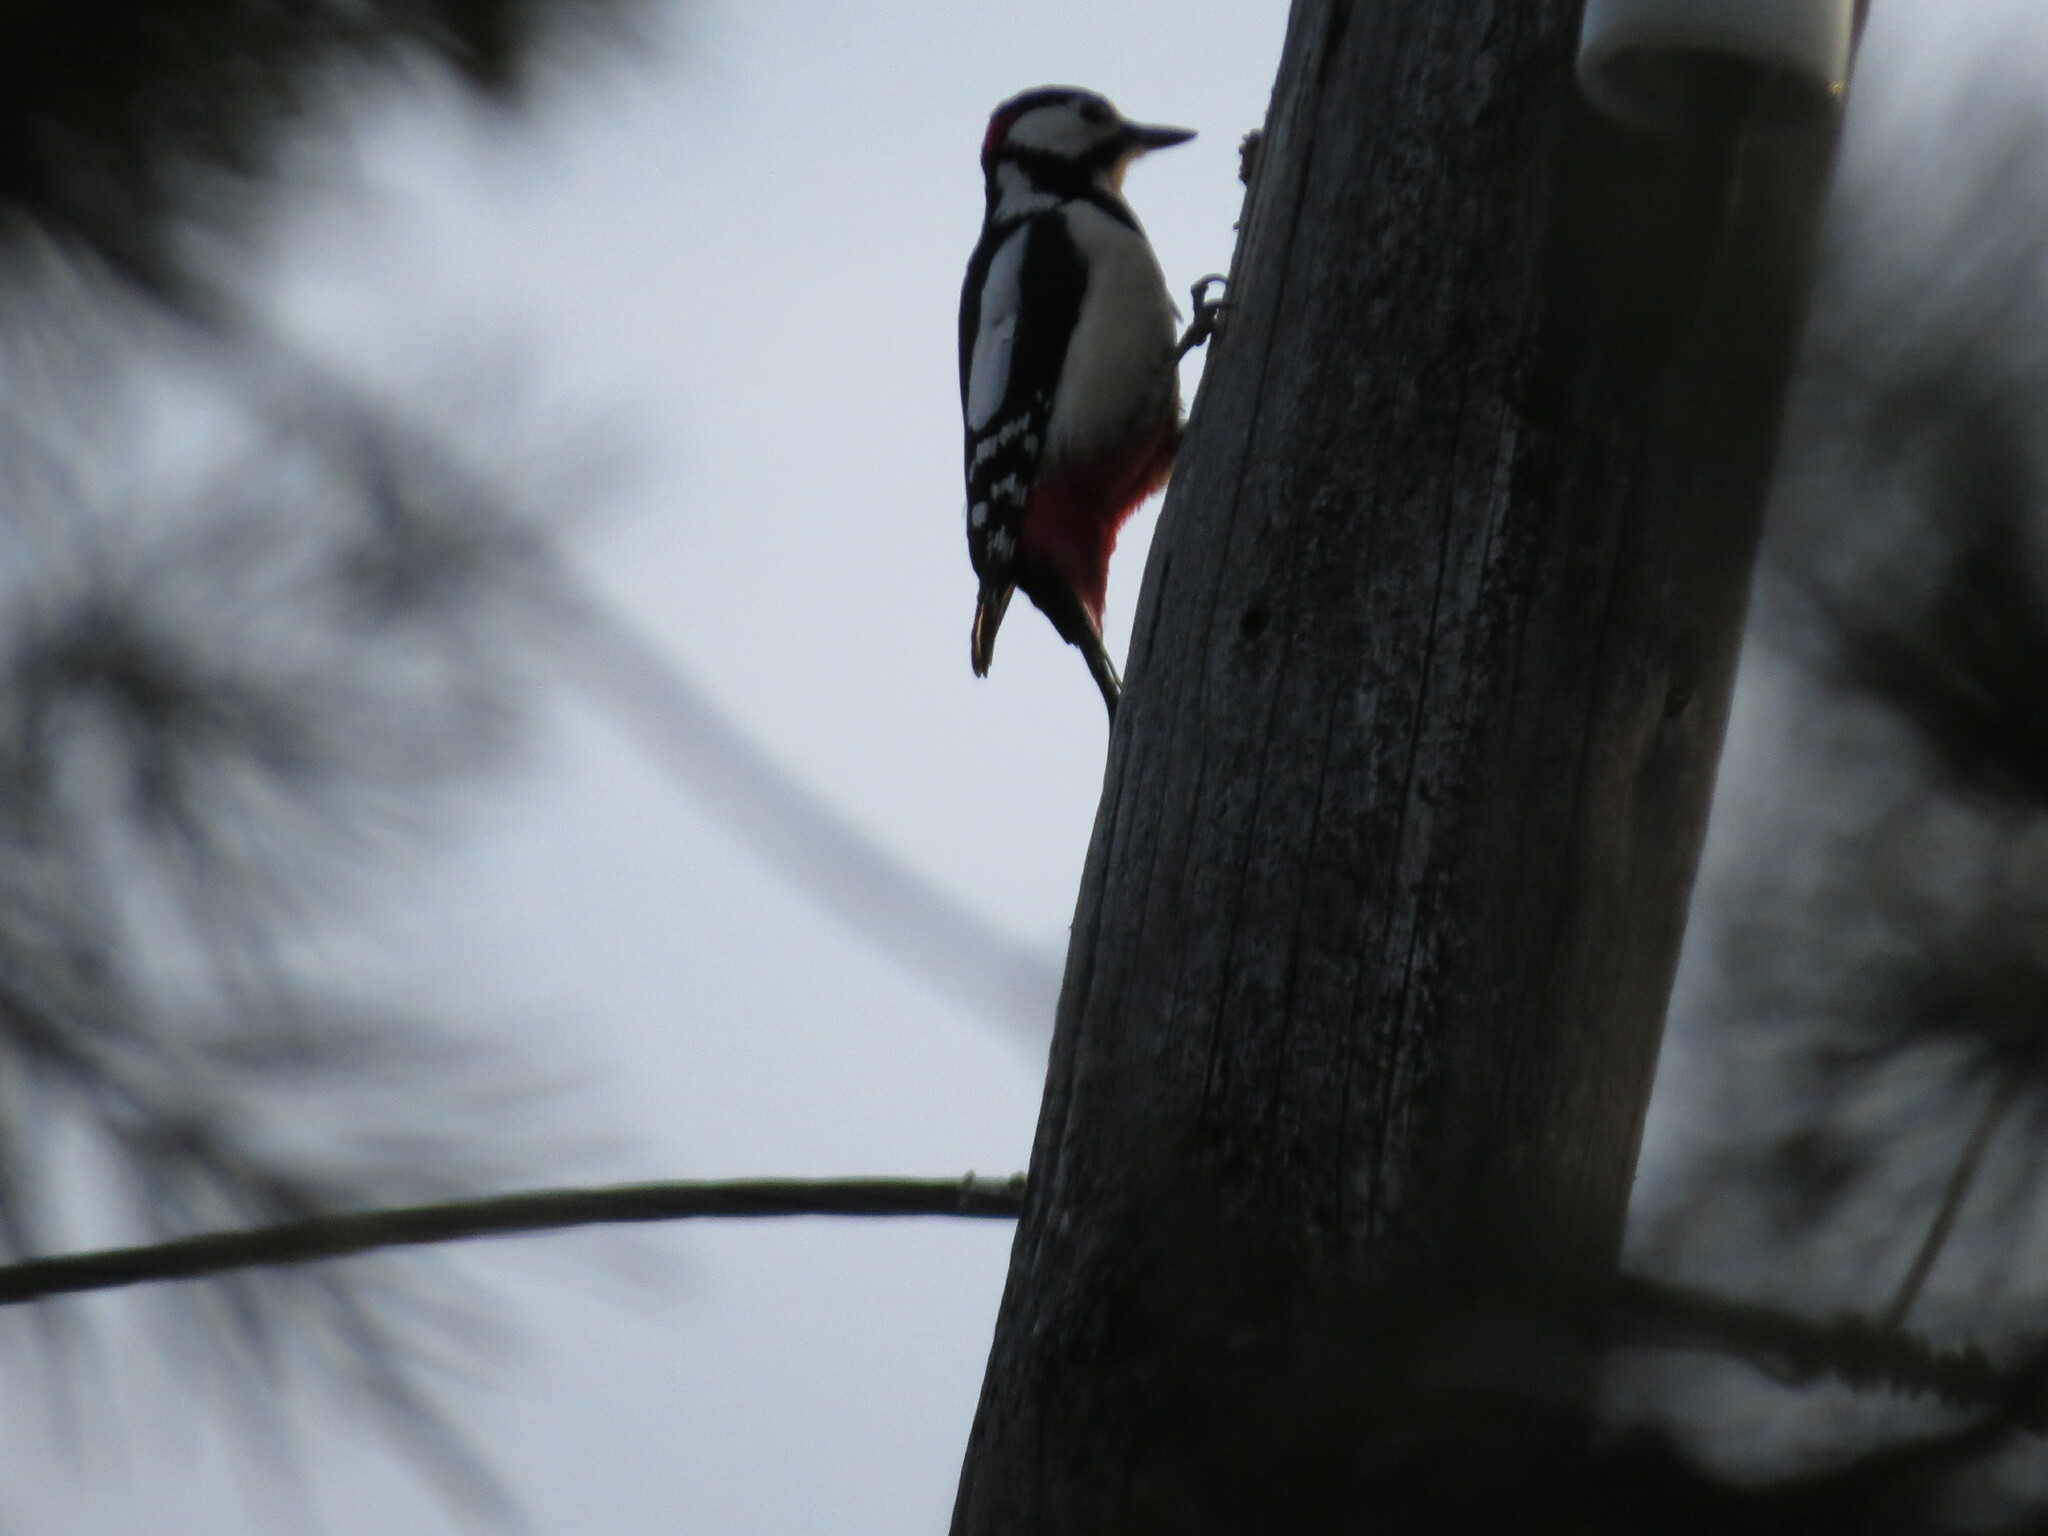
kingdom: Animalia
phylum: Chordata
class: Aves
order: Piciformes
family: Picidae
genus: Dendrocopos
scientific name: Dendrocopos major
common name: Great spotted woodpecker
